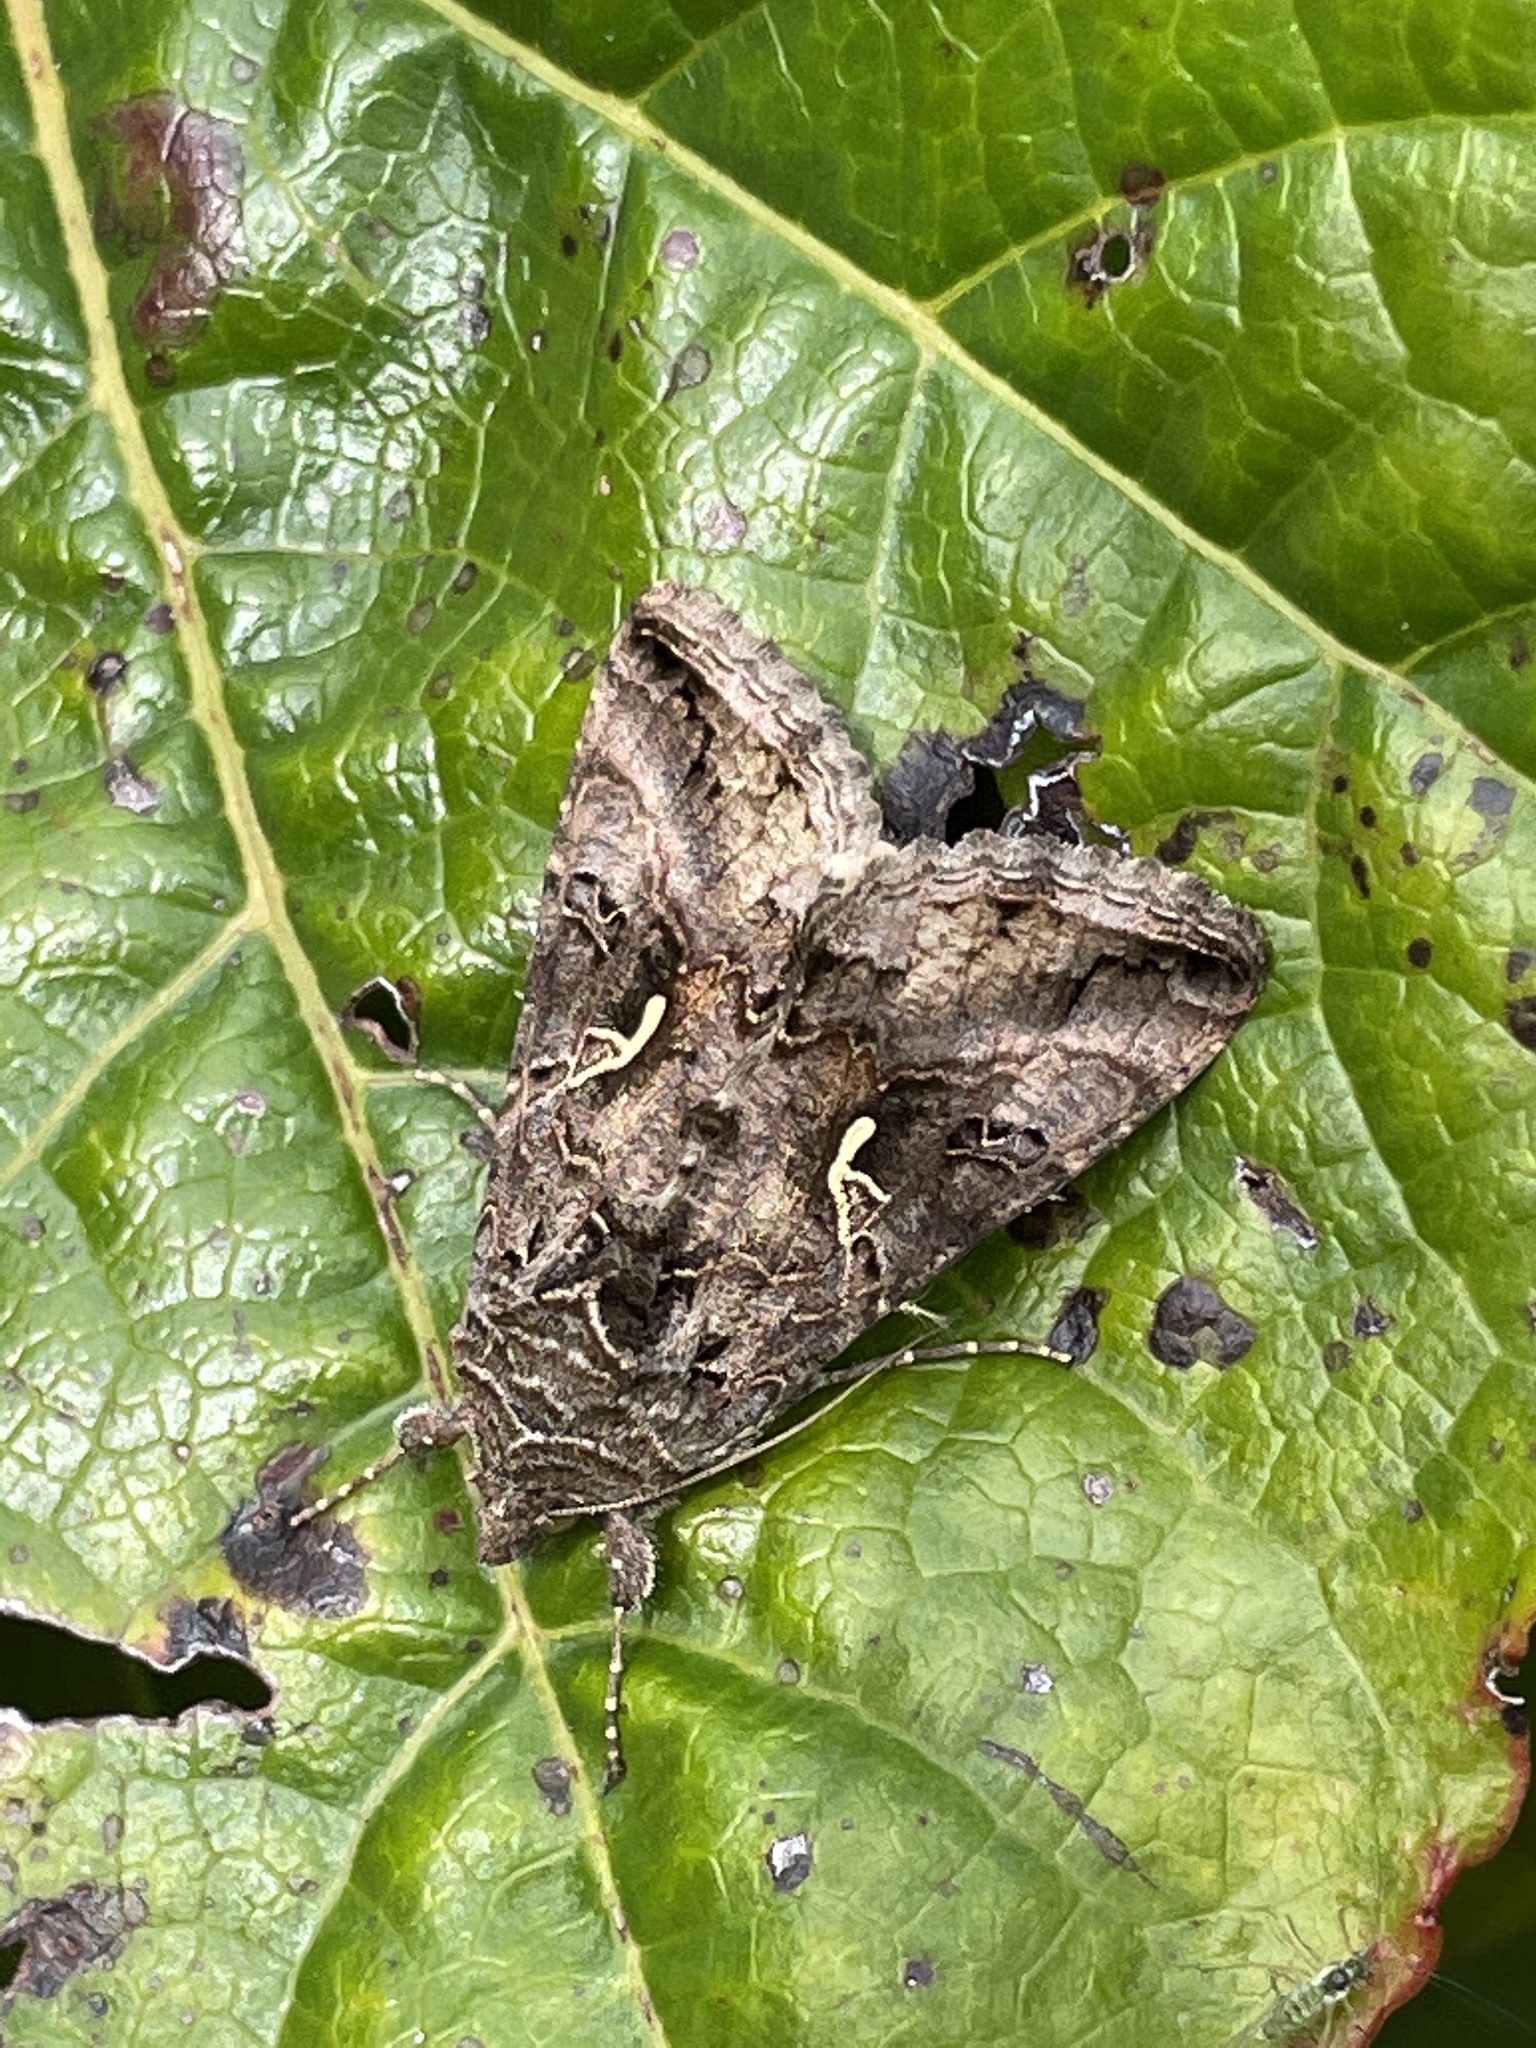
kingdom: Animalia
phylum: Arthropoda
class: Insecta
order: Lepidoptera
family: Noctuidae
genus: Autographa
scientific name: Autographa gamma
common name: Silver y
